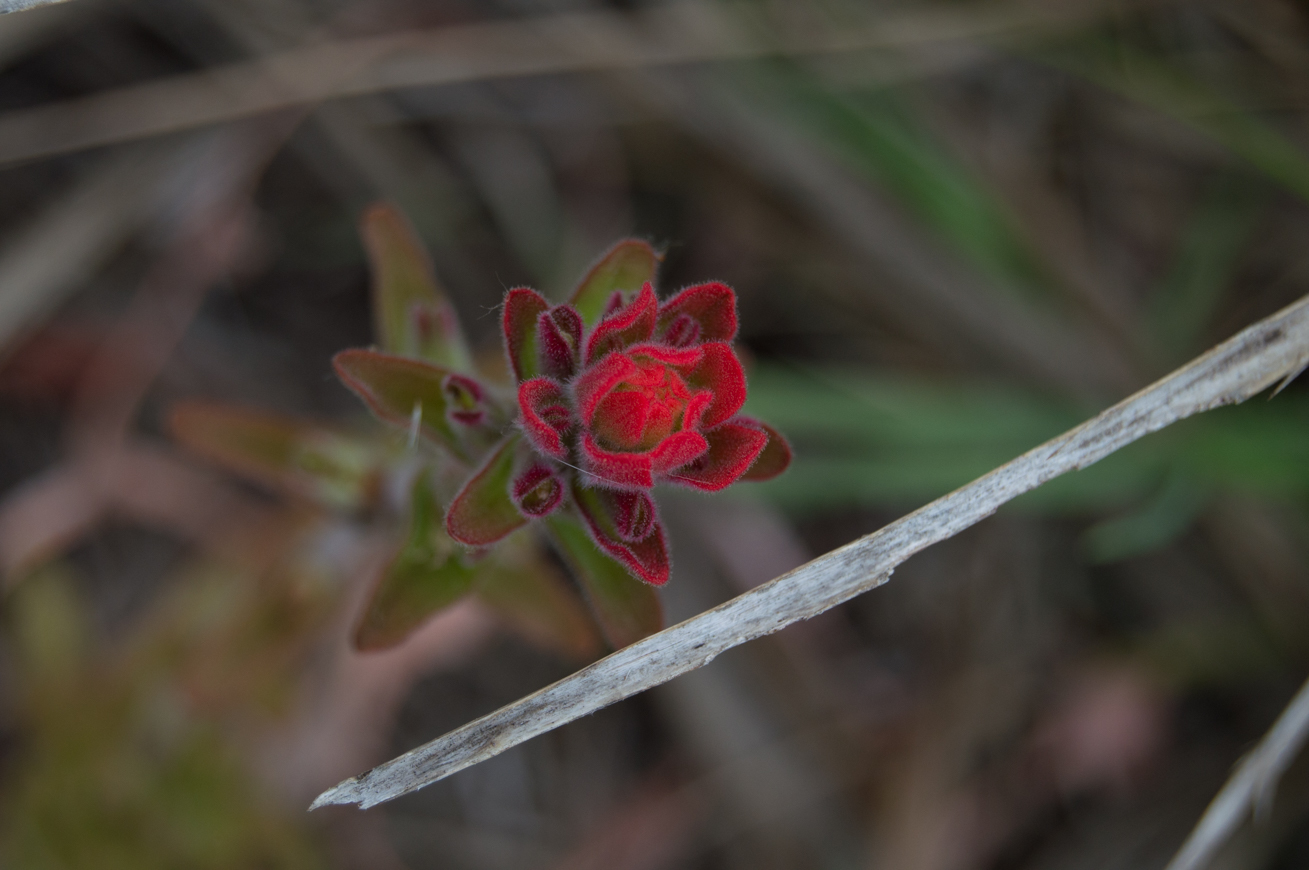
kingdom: Plantae
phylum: Tracheophyta
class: Magnoliopsida
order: Lamiales
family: Orobanchaceae
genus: Castilleja
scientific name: Castilleja arvensis
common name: Indian paintbrush
